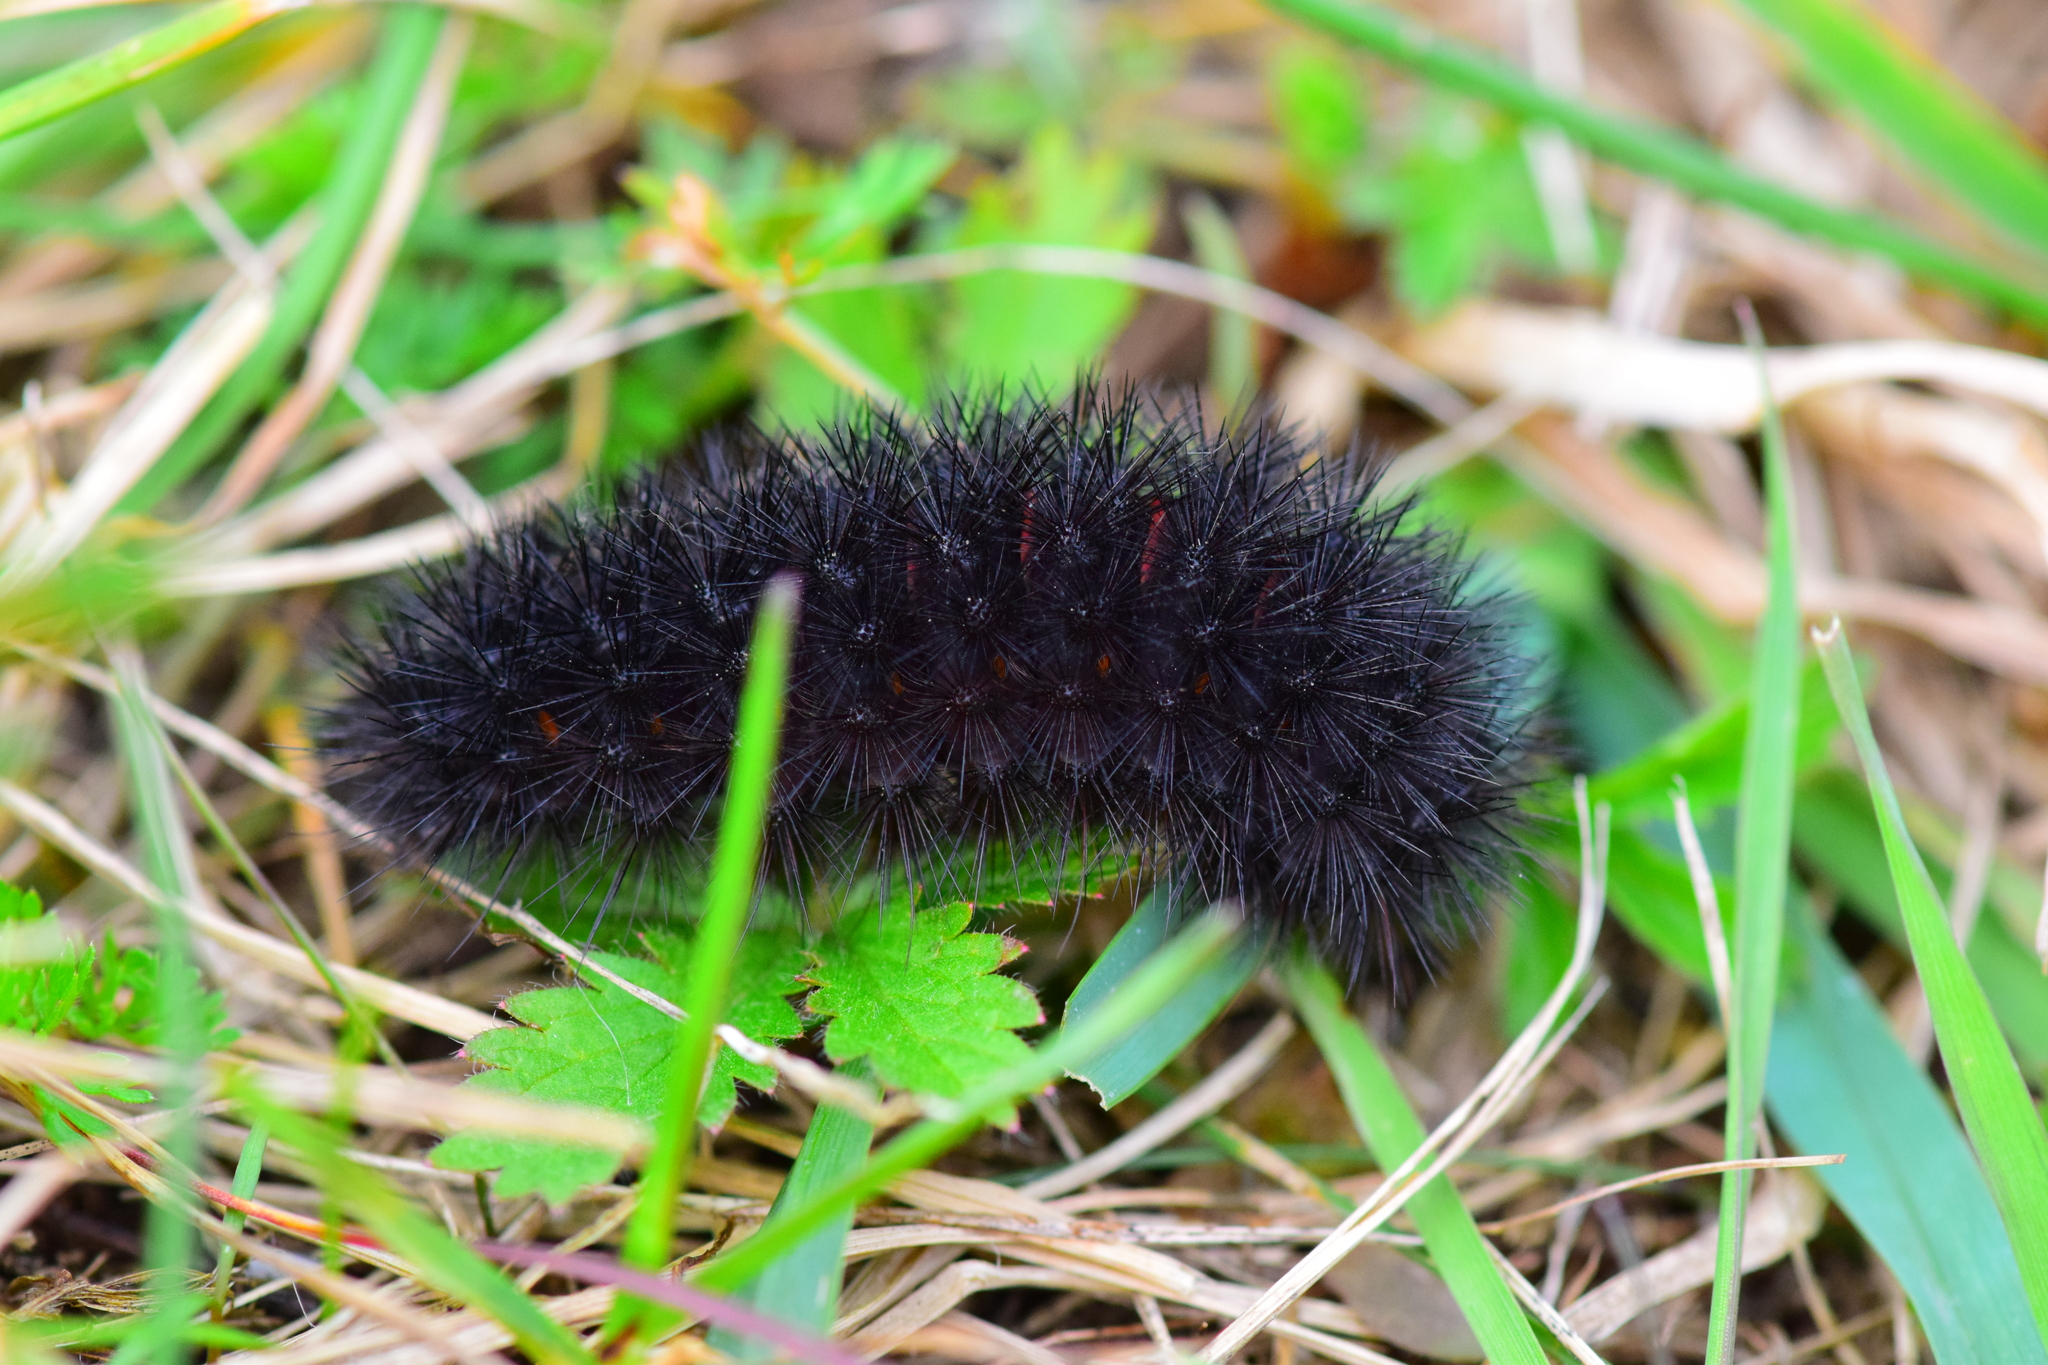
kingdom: Animalia
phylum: Arthropoda
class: Insecta
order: Lepidoptera
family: Erebidae
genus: Hypercompe
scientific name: Hypercompe scribonia
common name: Giant leopard moth
